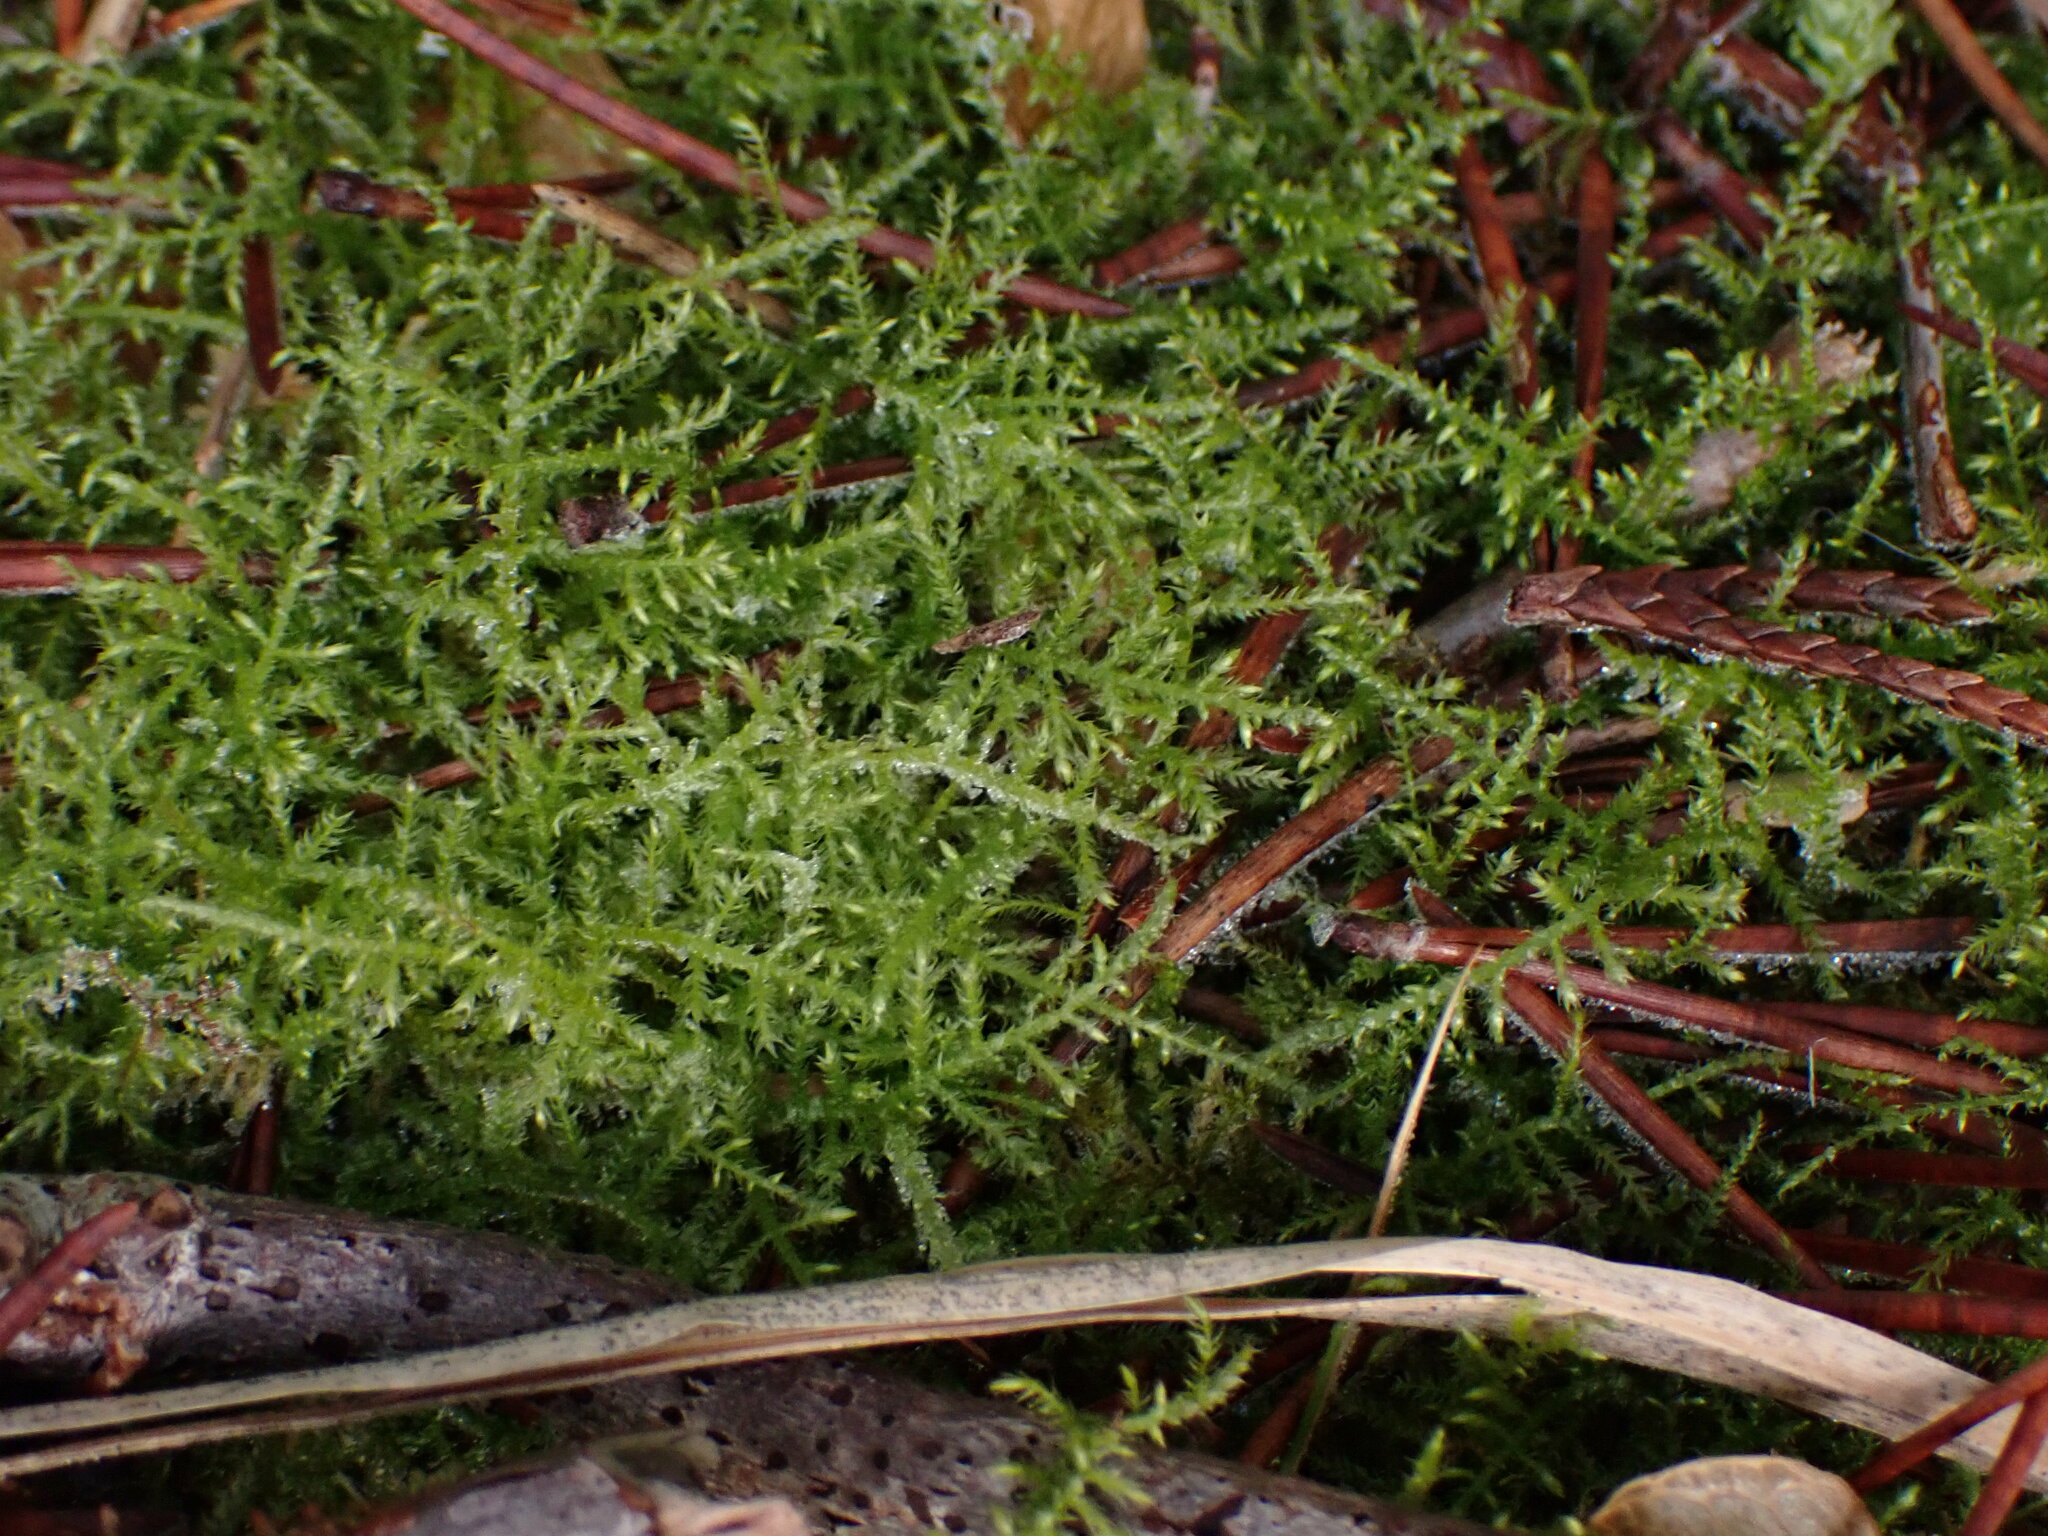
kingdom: Plantae
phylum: Bryophyta
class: Bryopsida
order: Hypnales
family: Brachytheciaceae
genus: Kindbergia
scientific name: Kindbergia praelonga
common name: Slender beaked moss
